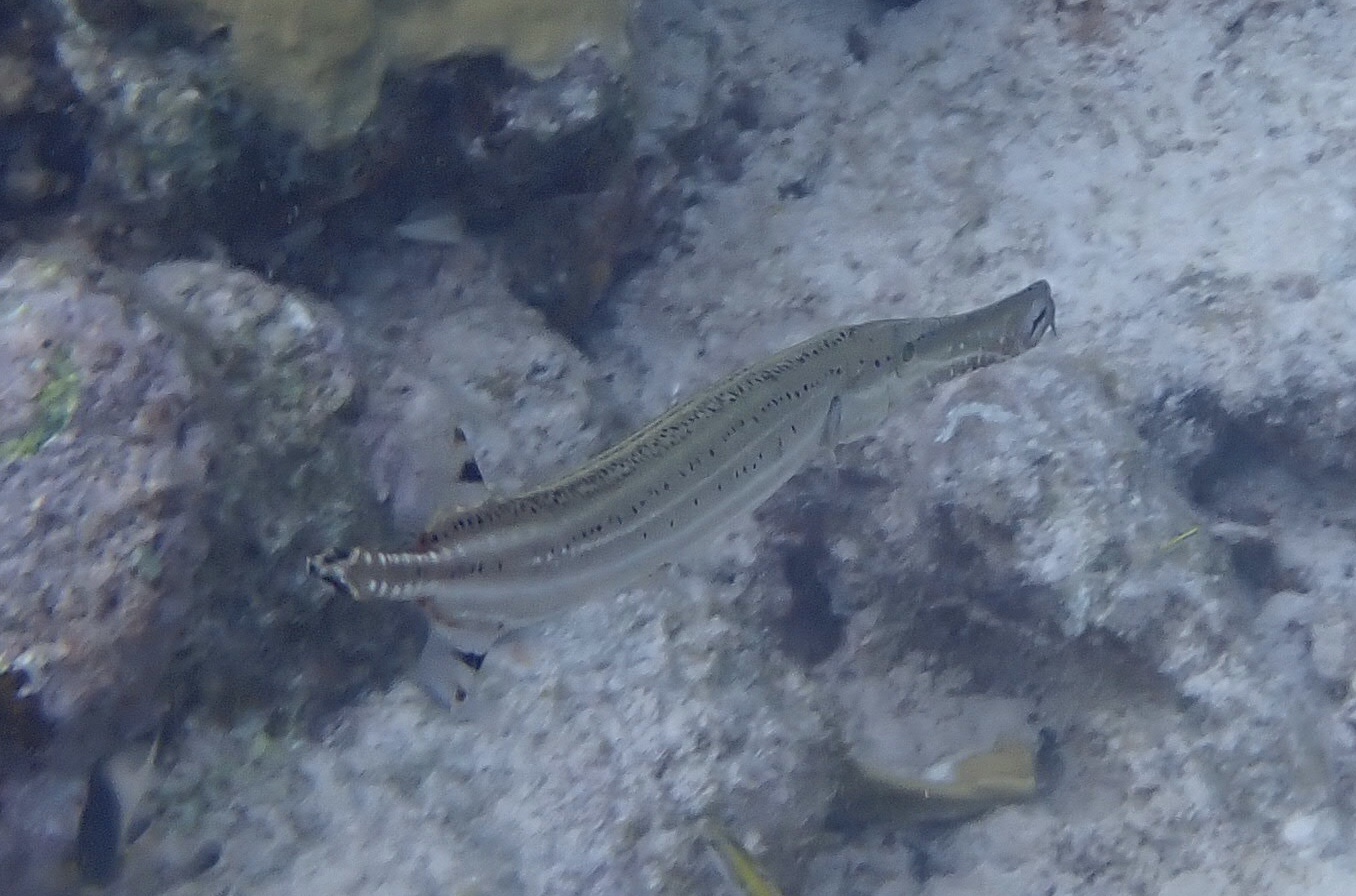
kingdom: Animalia
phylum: Chordata
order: Syngnathiformes
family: Aulostomidae
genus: Aulostomus
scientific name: Aulostomus maculatus
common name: West atlantic trumpetfish
